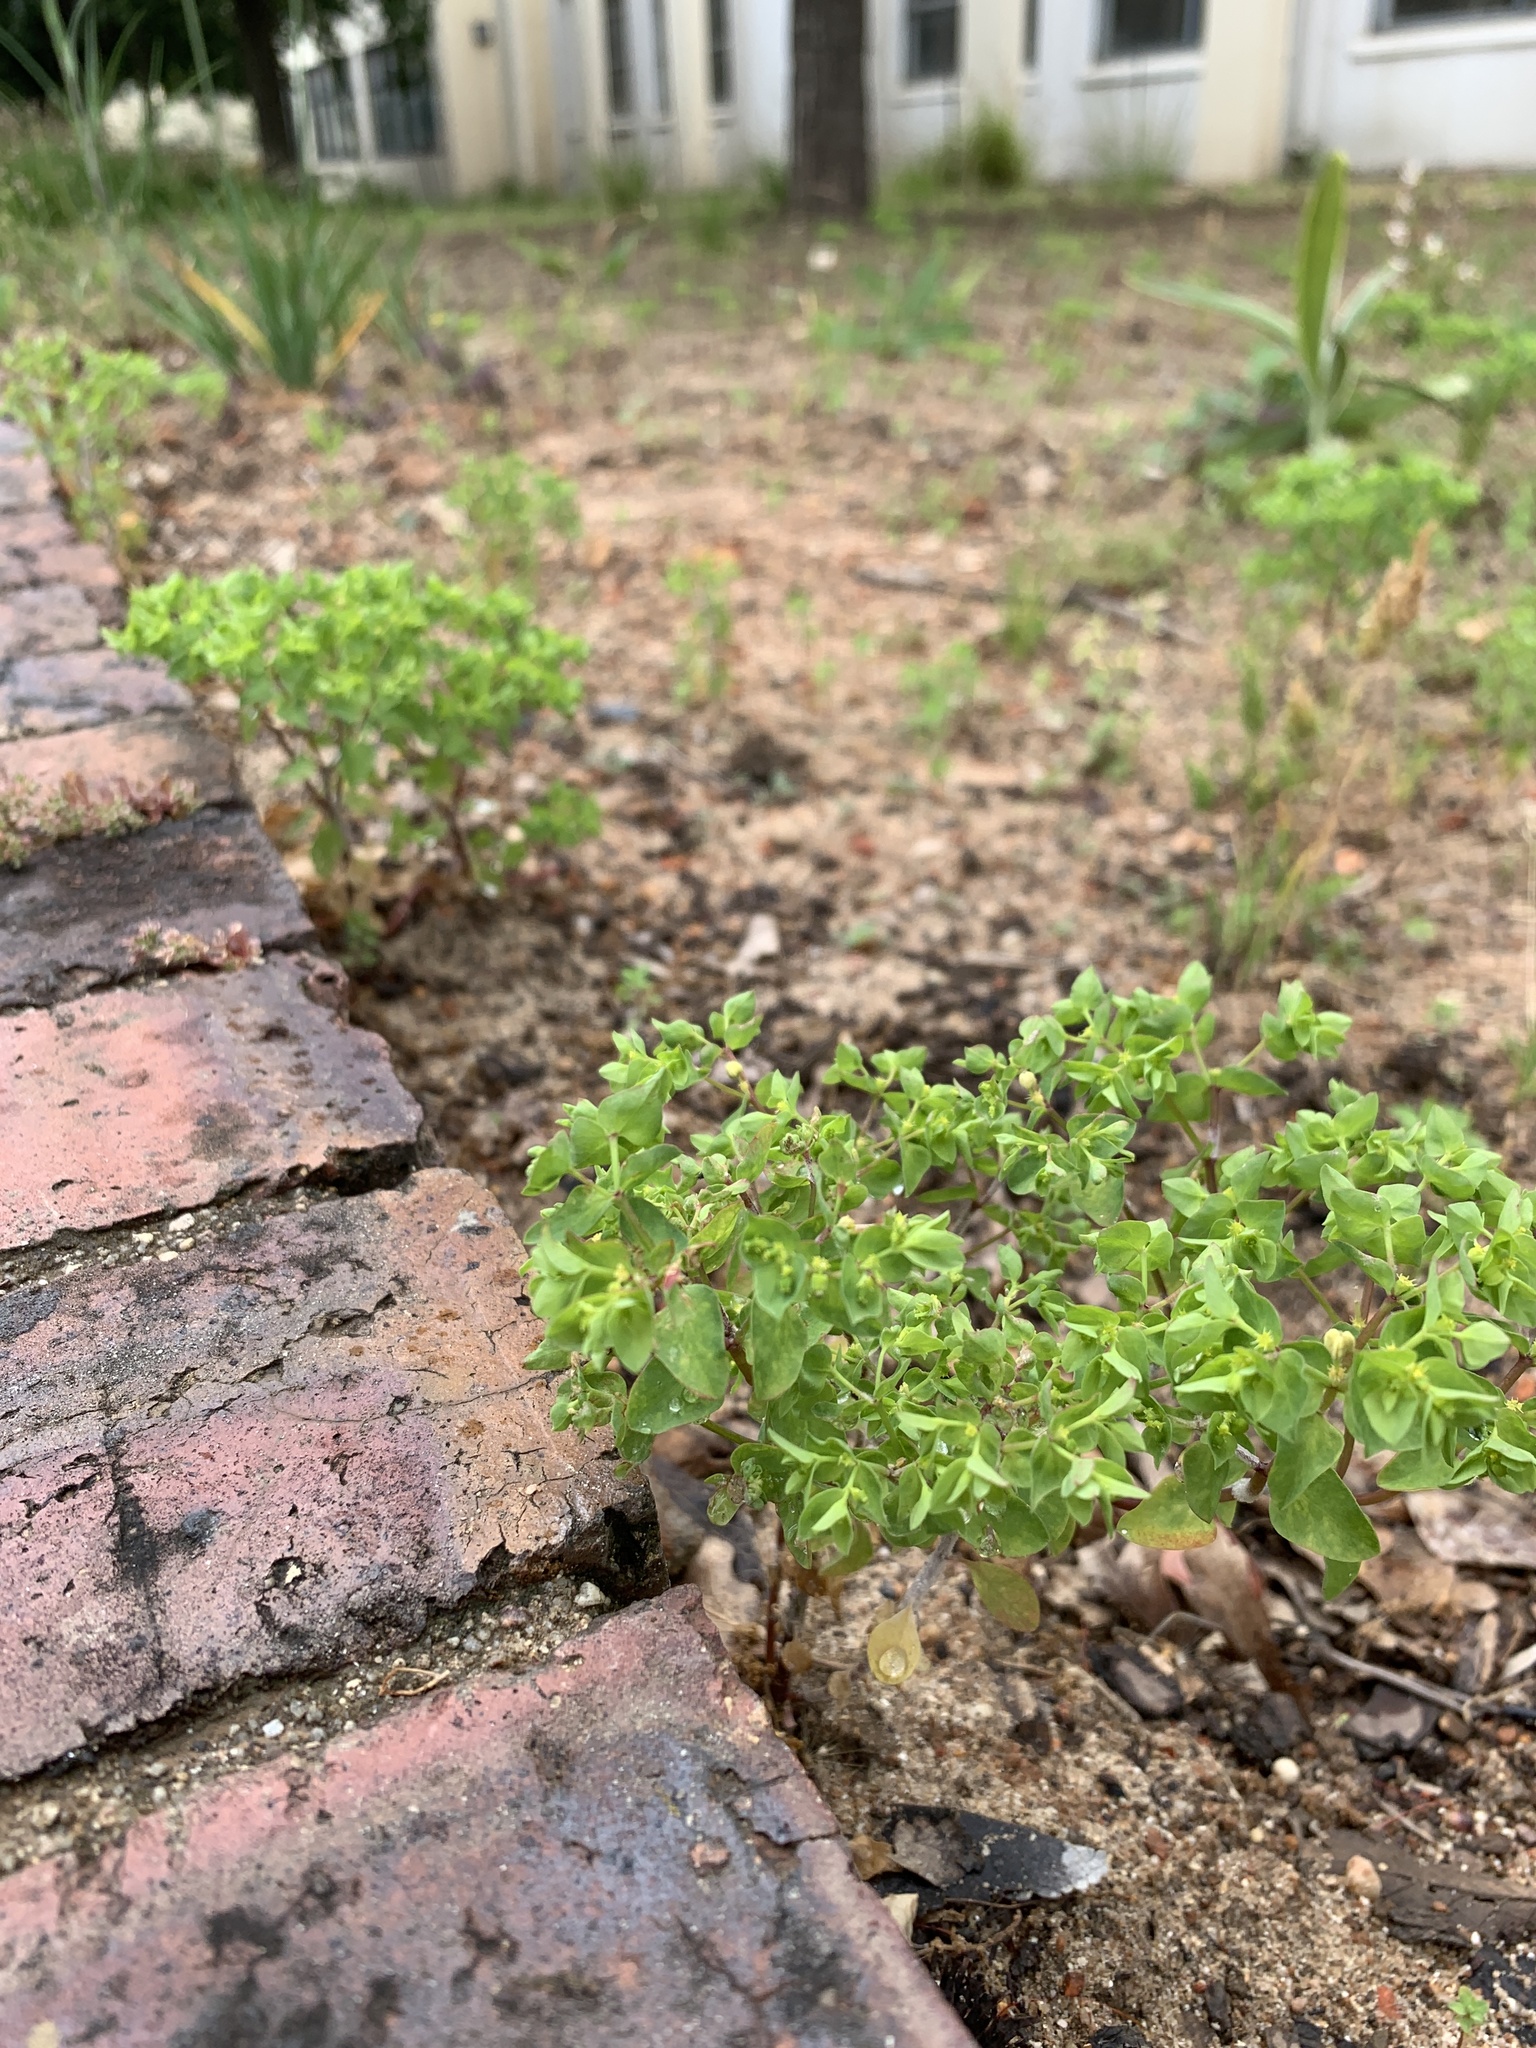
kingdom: Plantae
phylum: Tracheophyta
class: Magnoliopsida
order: Malpighiales
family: Euphorbiaceae
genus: Euphorbia
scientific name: Euphorbia peplus
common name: Petty spurge
